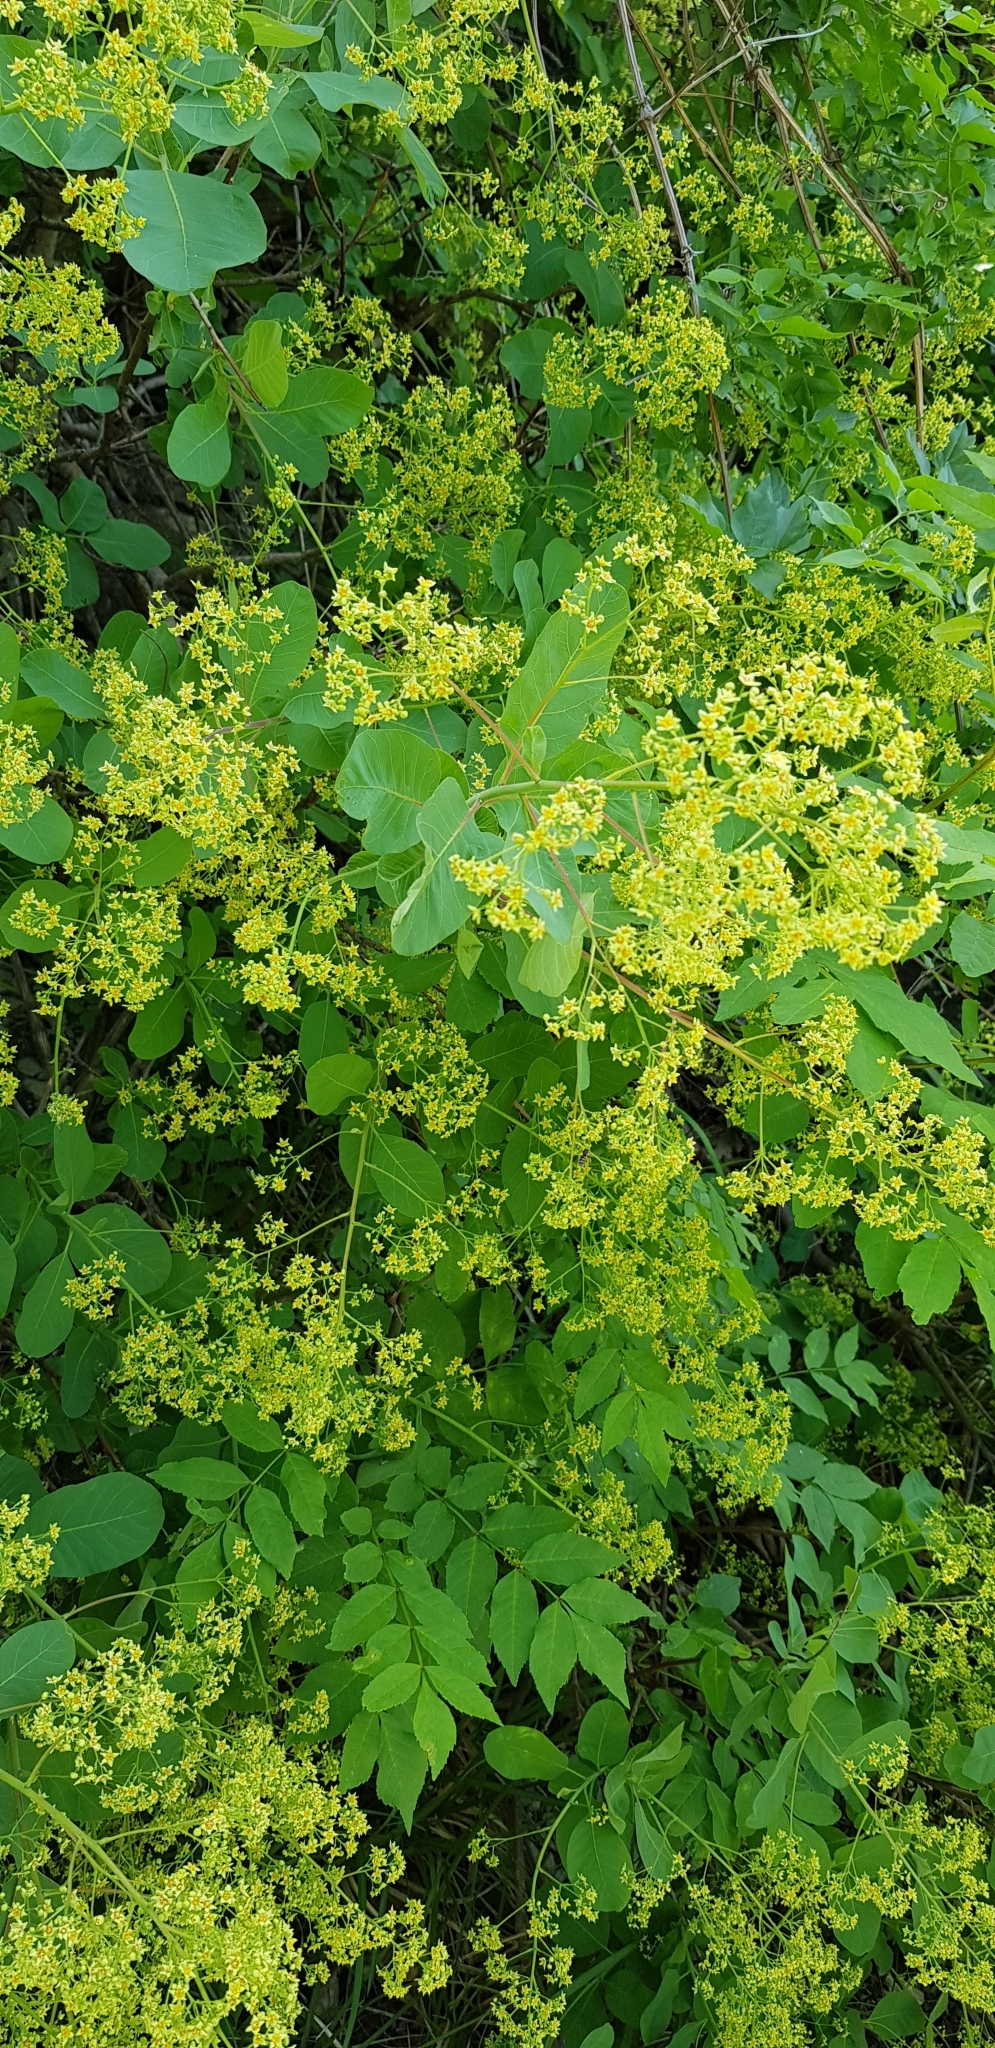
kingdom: Plantae
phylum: Tracheophyta
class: Magnoliopsida
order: Sapindales
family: Anacardiaceae
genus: Cotinus
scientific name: Cotinus coggygria
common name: Smoke-tree
